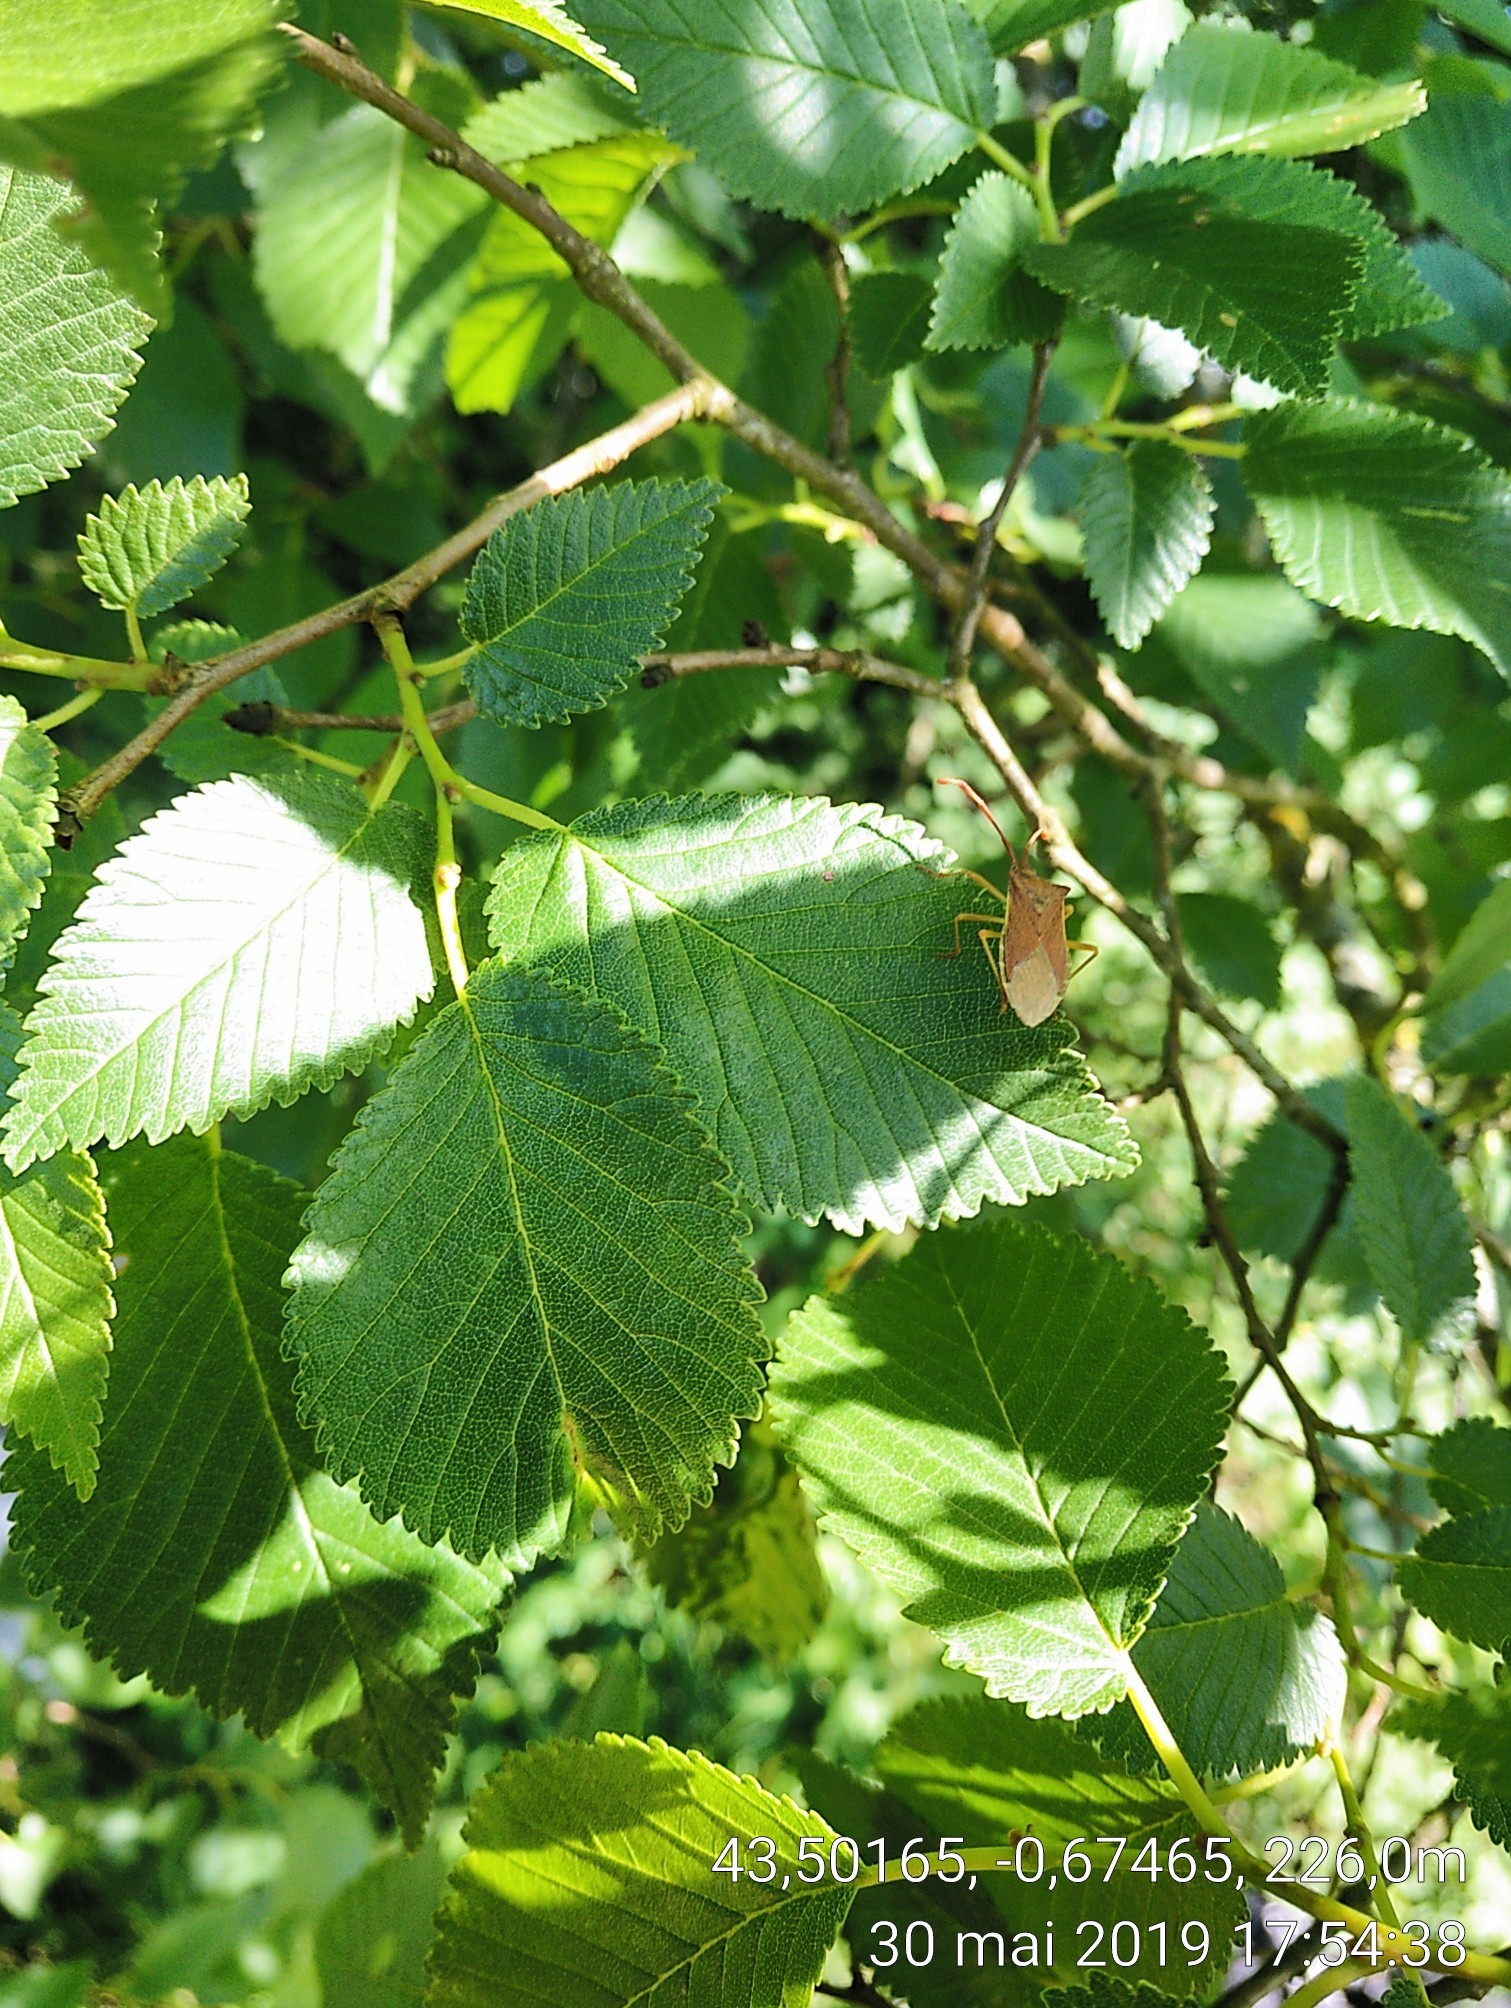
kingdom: Animalia
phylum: Arthropoda
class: Insecta
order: Hemiptera
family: Coreidae
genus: Gonocerus
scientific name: Gonocerus acuteangulatus
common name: Box bug
